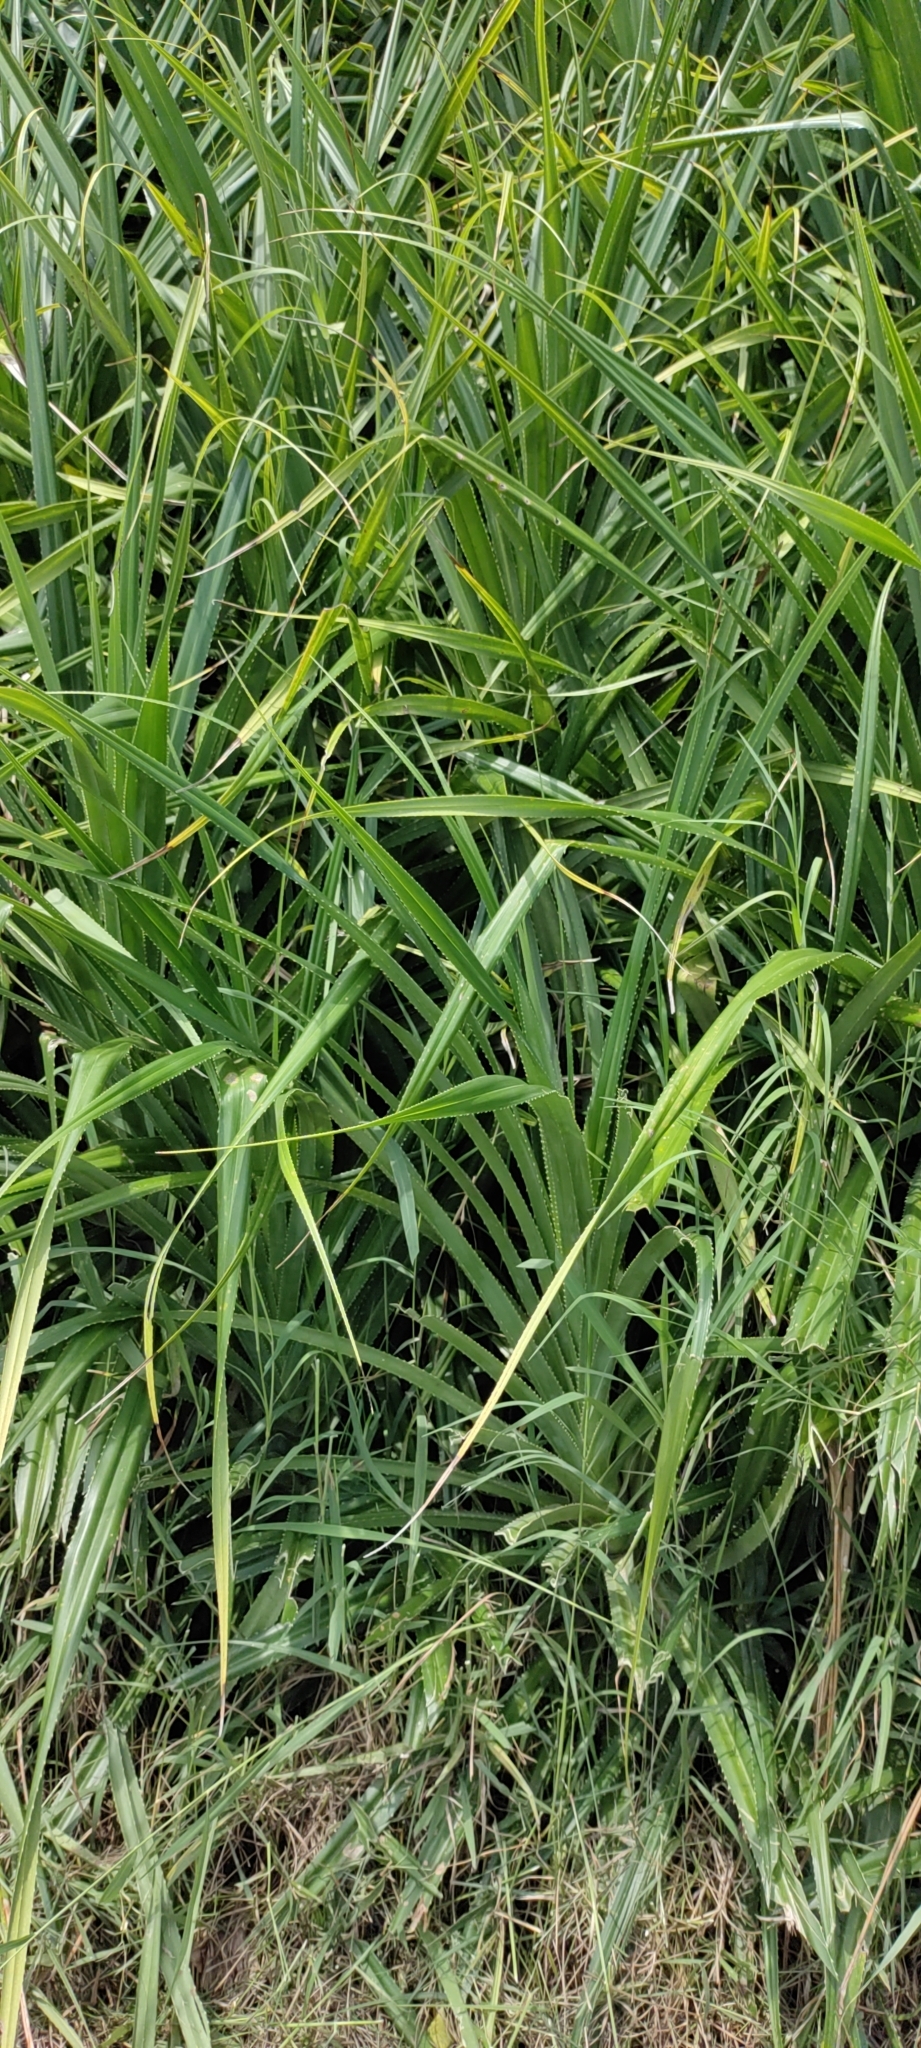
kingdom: Plantae
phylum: Tracheophyta
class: Liliopsida
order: Pandanales
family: Pandanaceae
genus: Pandanus
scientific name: Pandanus odorifer
